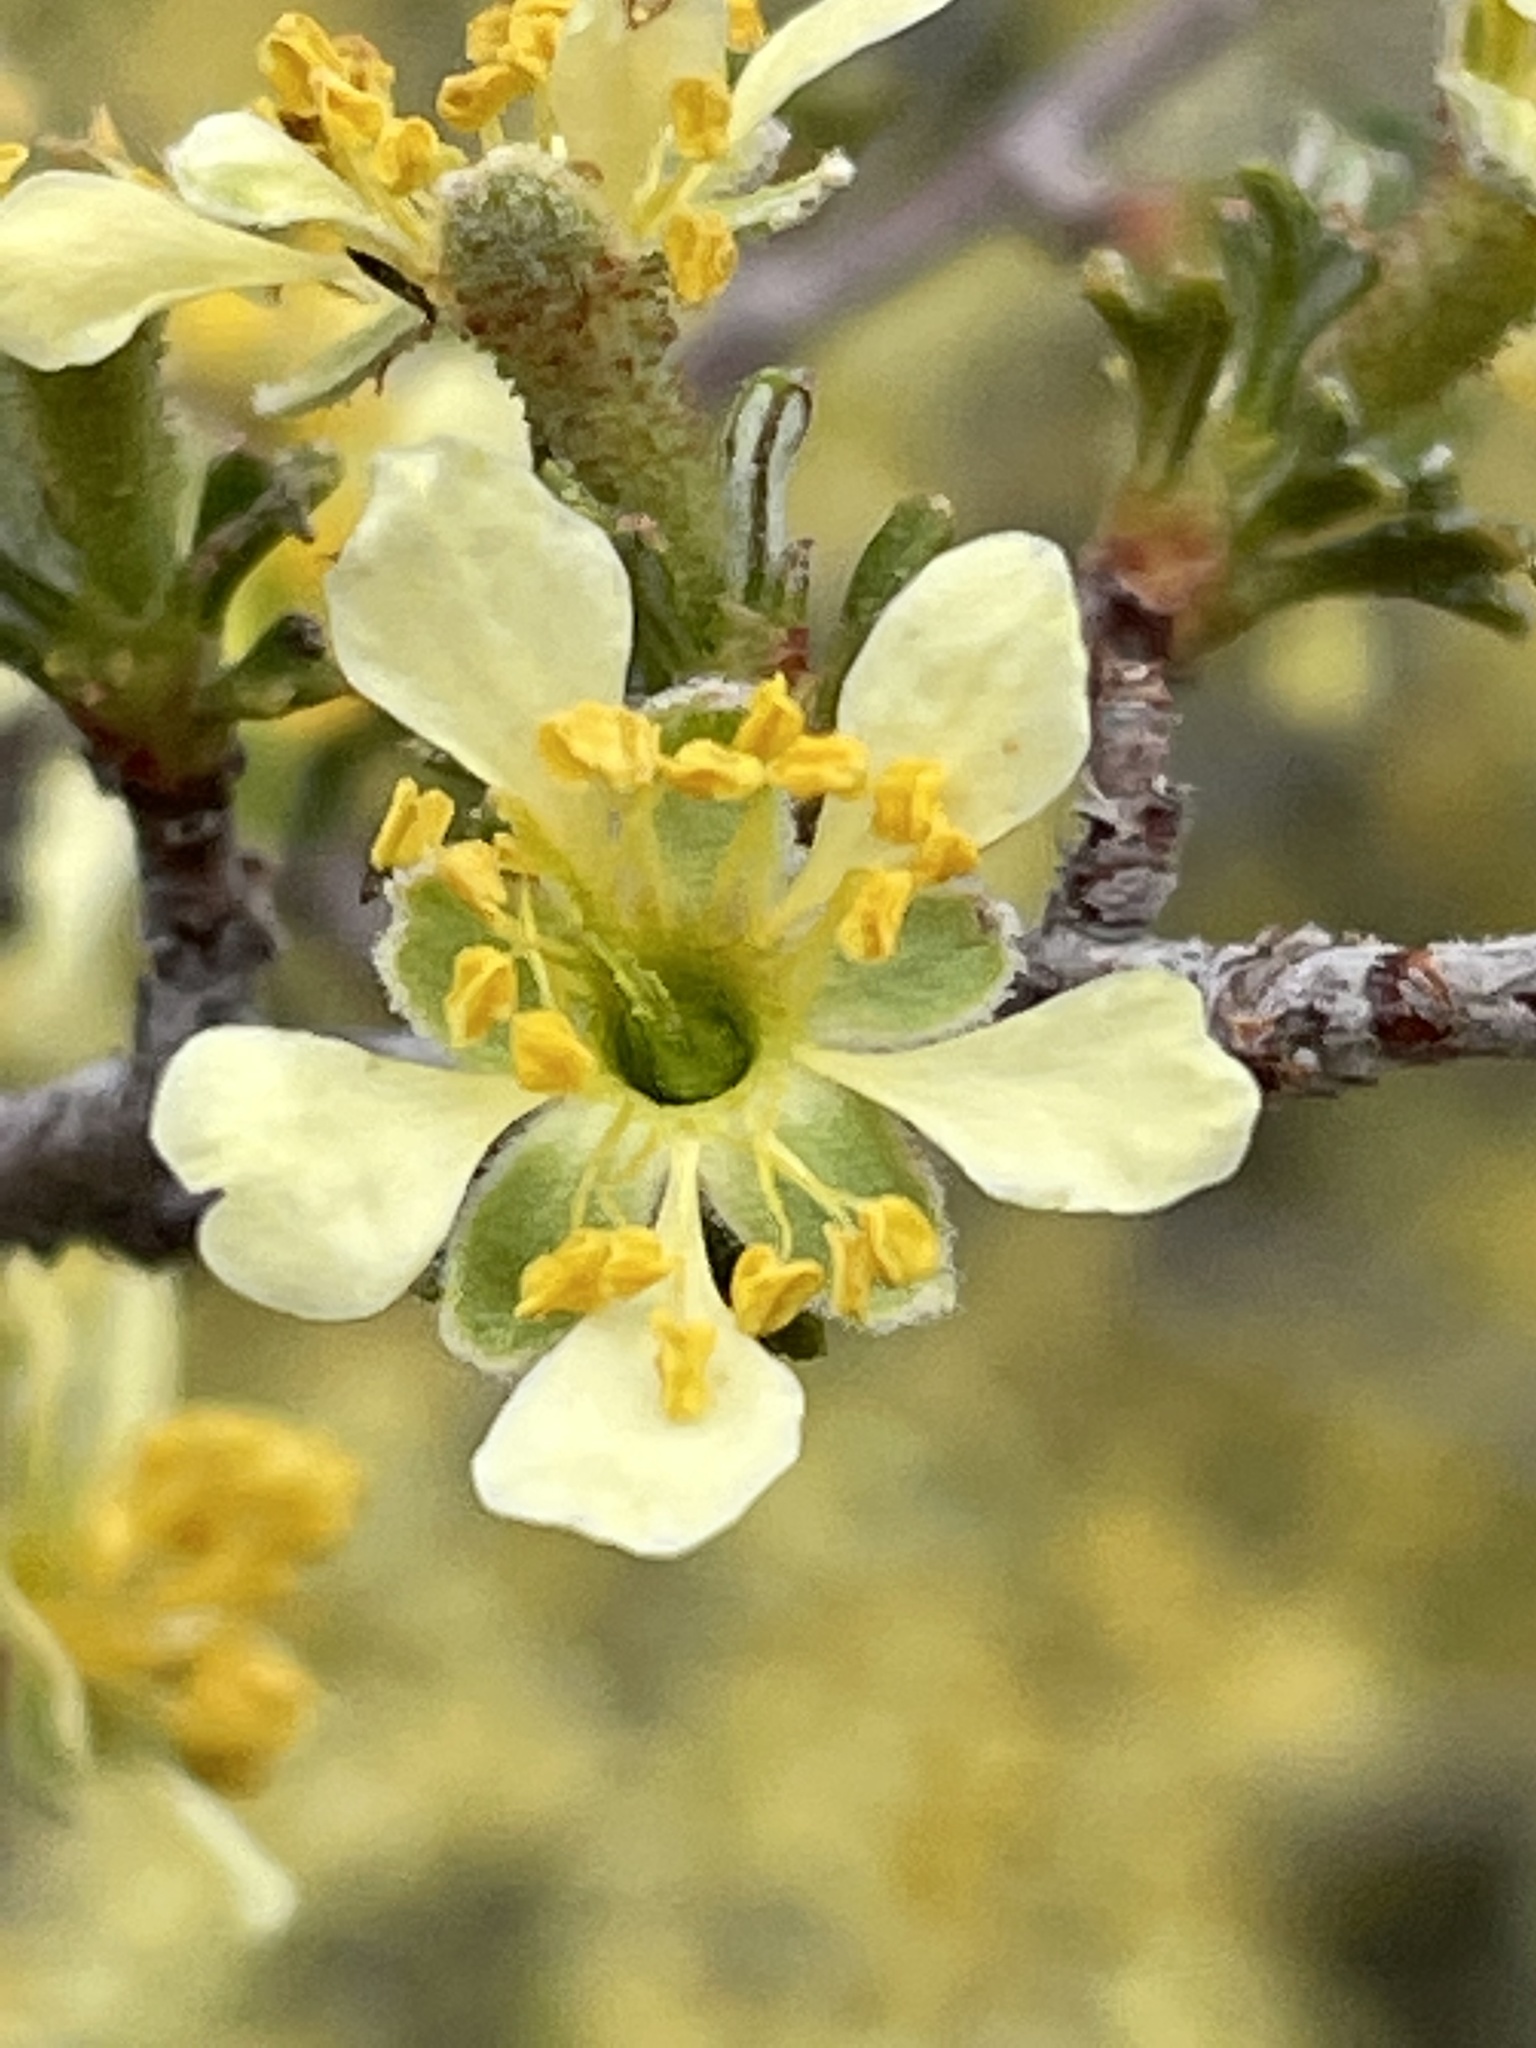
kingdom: Plantae
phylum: Tracheophyta
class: Magnoliopsida
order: Rosales
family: Rosaceae
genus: Purshia
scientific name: Purshia tridentata
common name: Antelope bitterbrush
